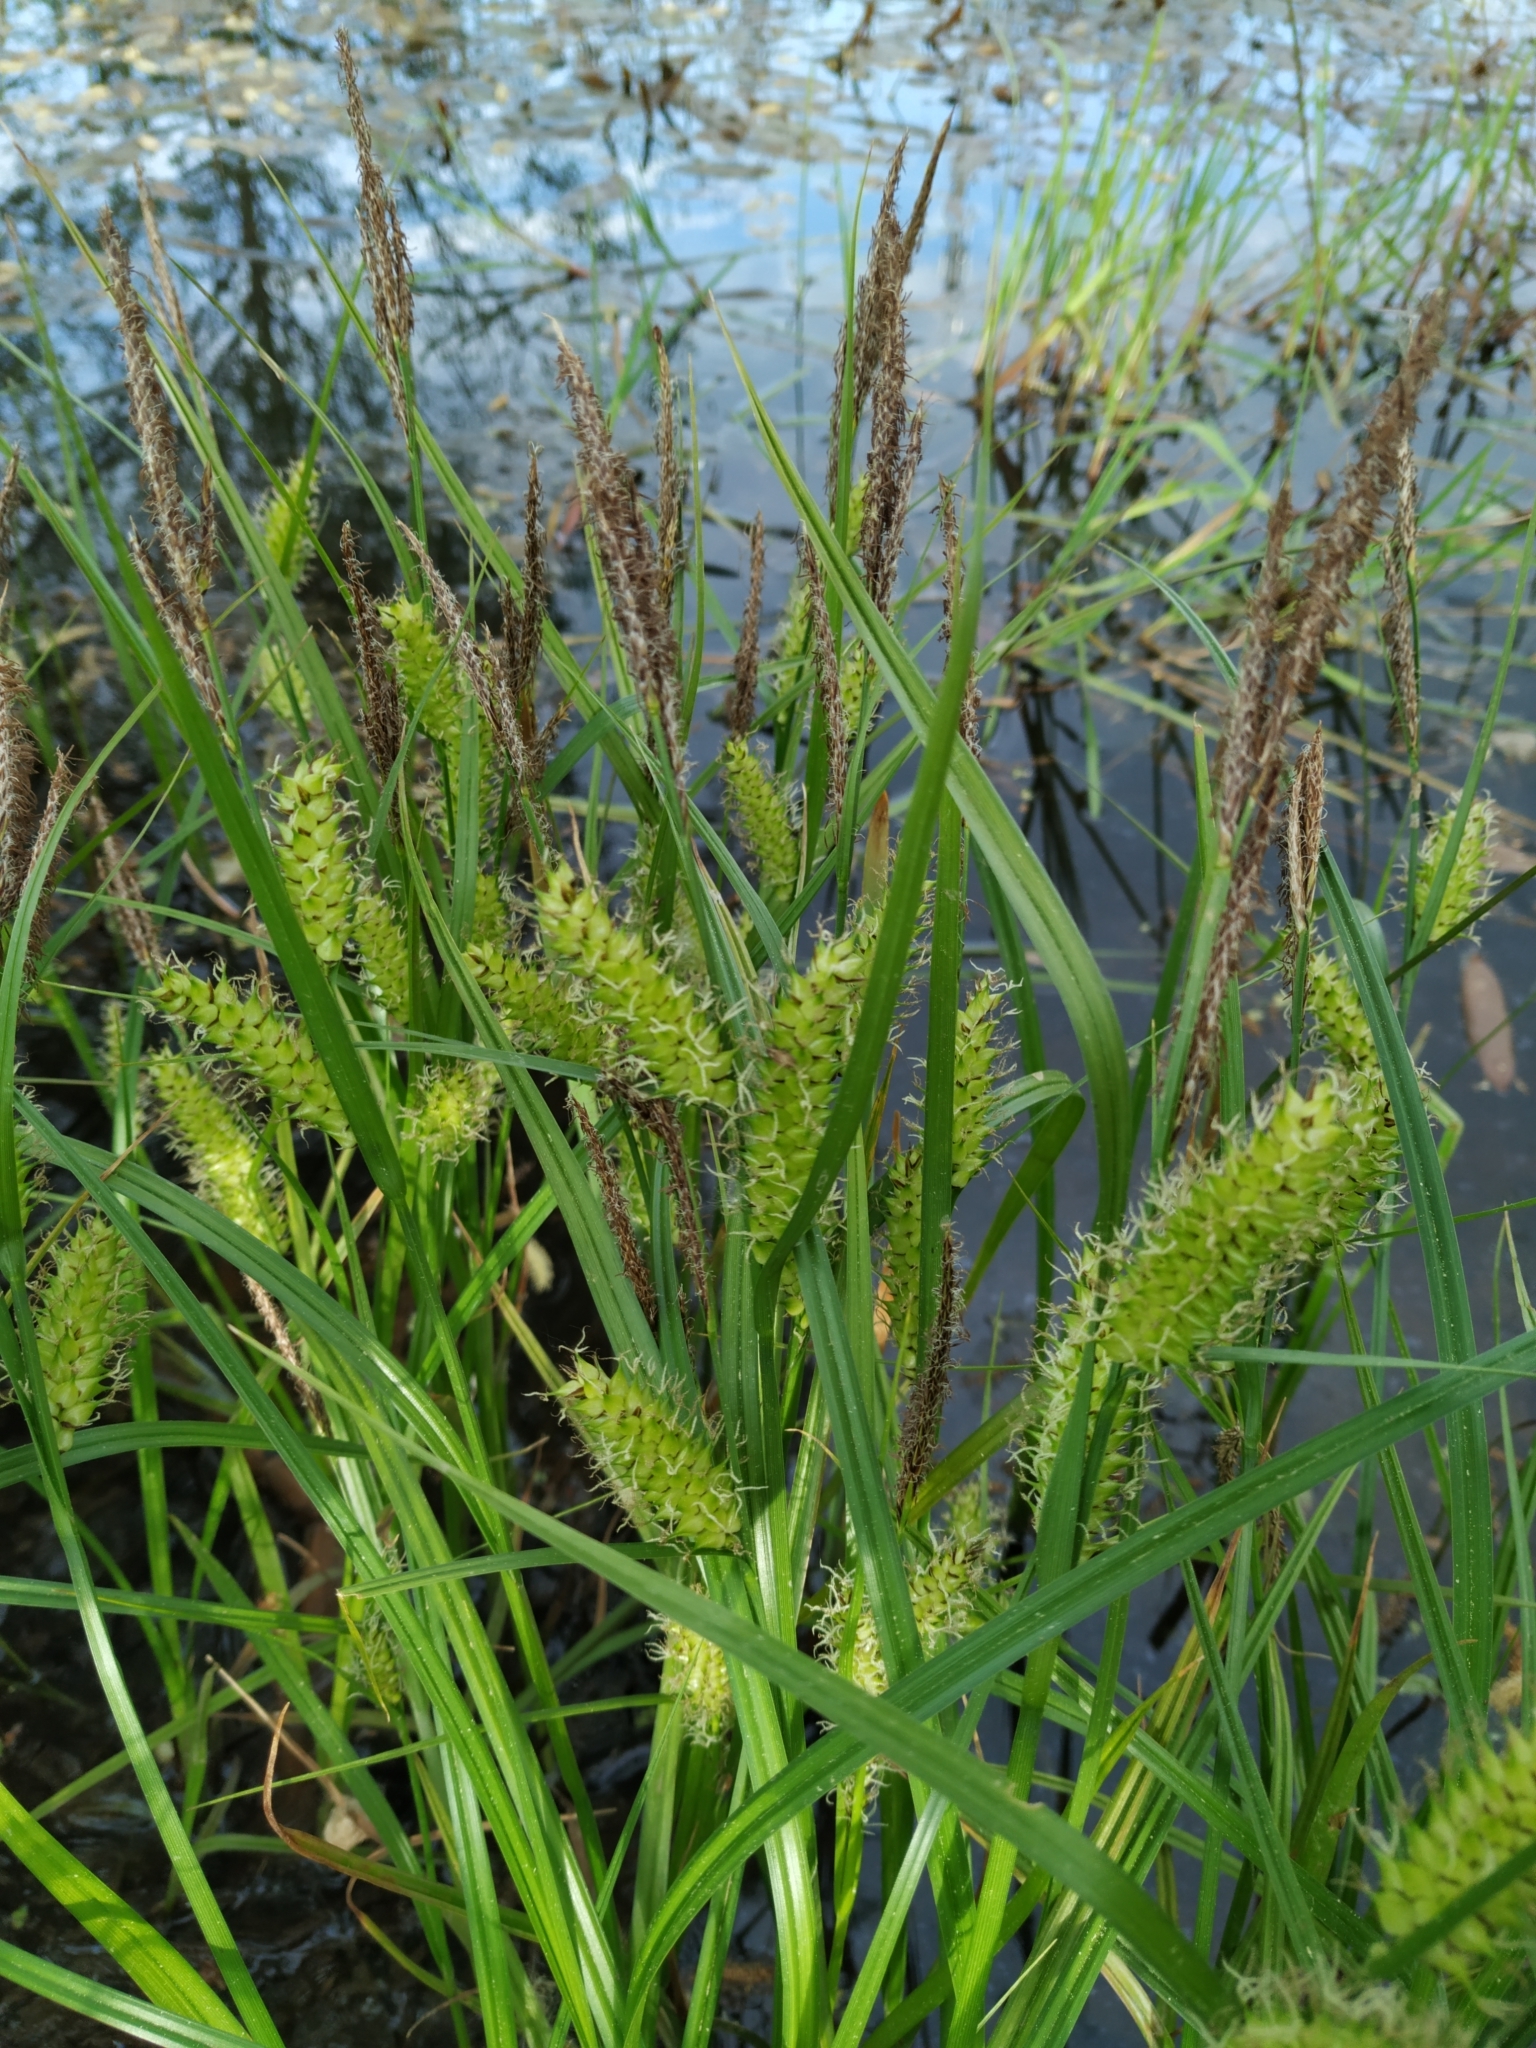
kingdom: Plantae
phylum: Tracheophyta
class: Liliopsida
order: Poales
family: Cyperaceae
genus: Carex
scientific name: Carex vesicaria
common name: Bladder-sedge
